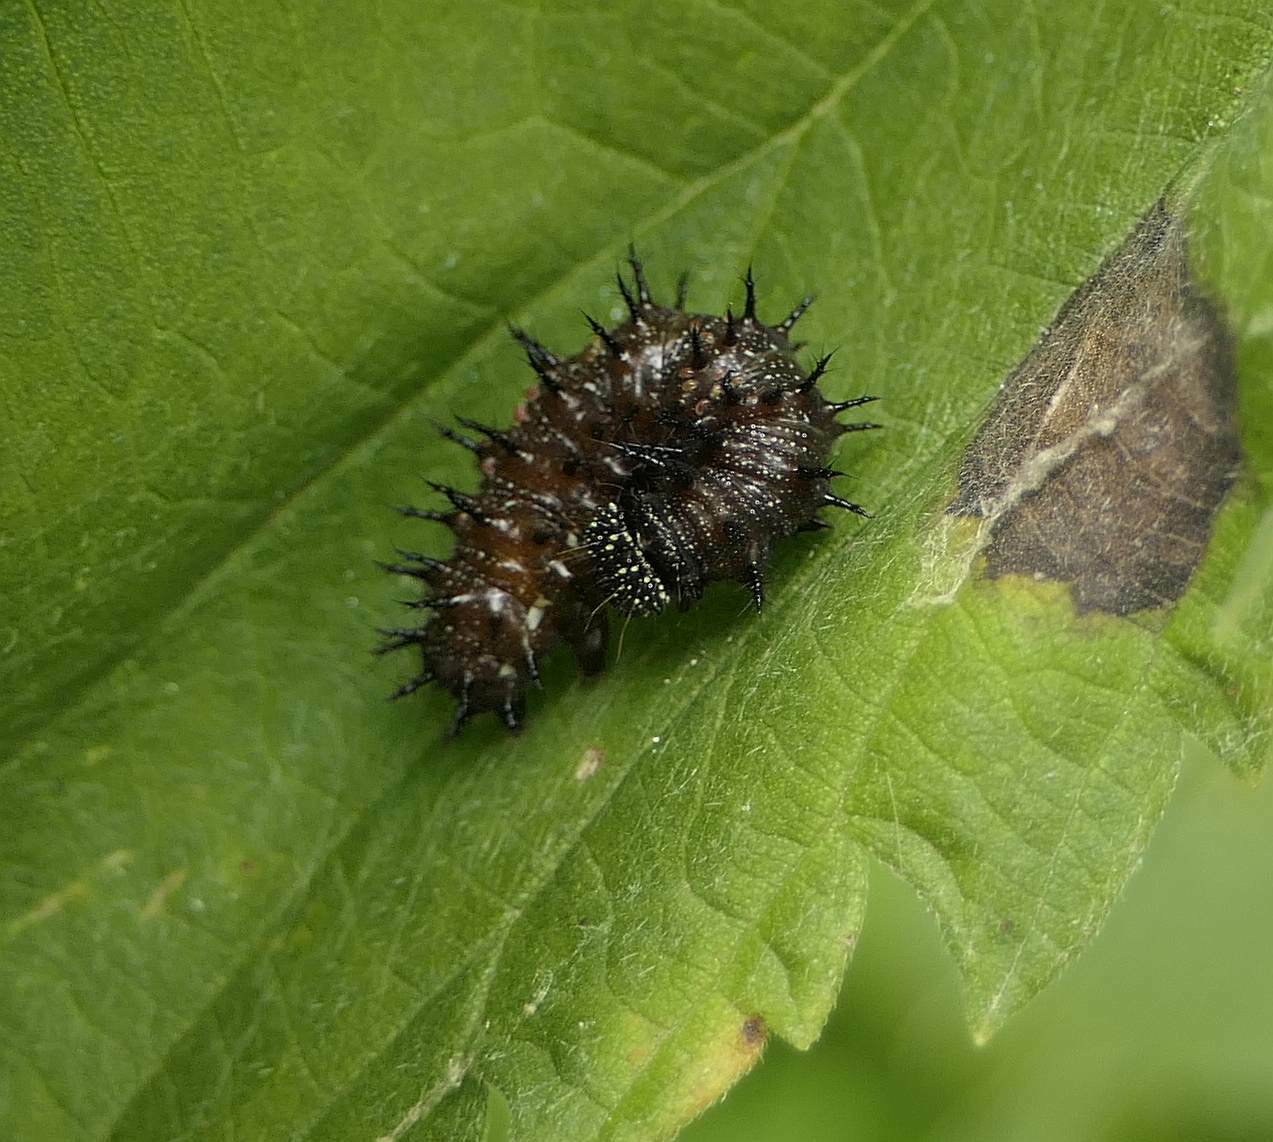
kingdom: Animalia
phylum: Arthropoda
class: Insecta
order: Lepidoptera
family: Nymphalidae
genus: Vanessa
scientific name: Vanessa atalanta
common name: Red admiral
